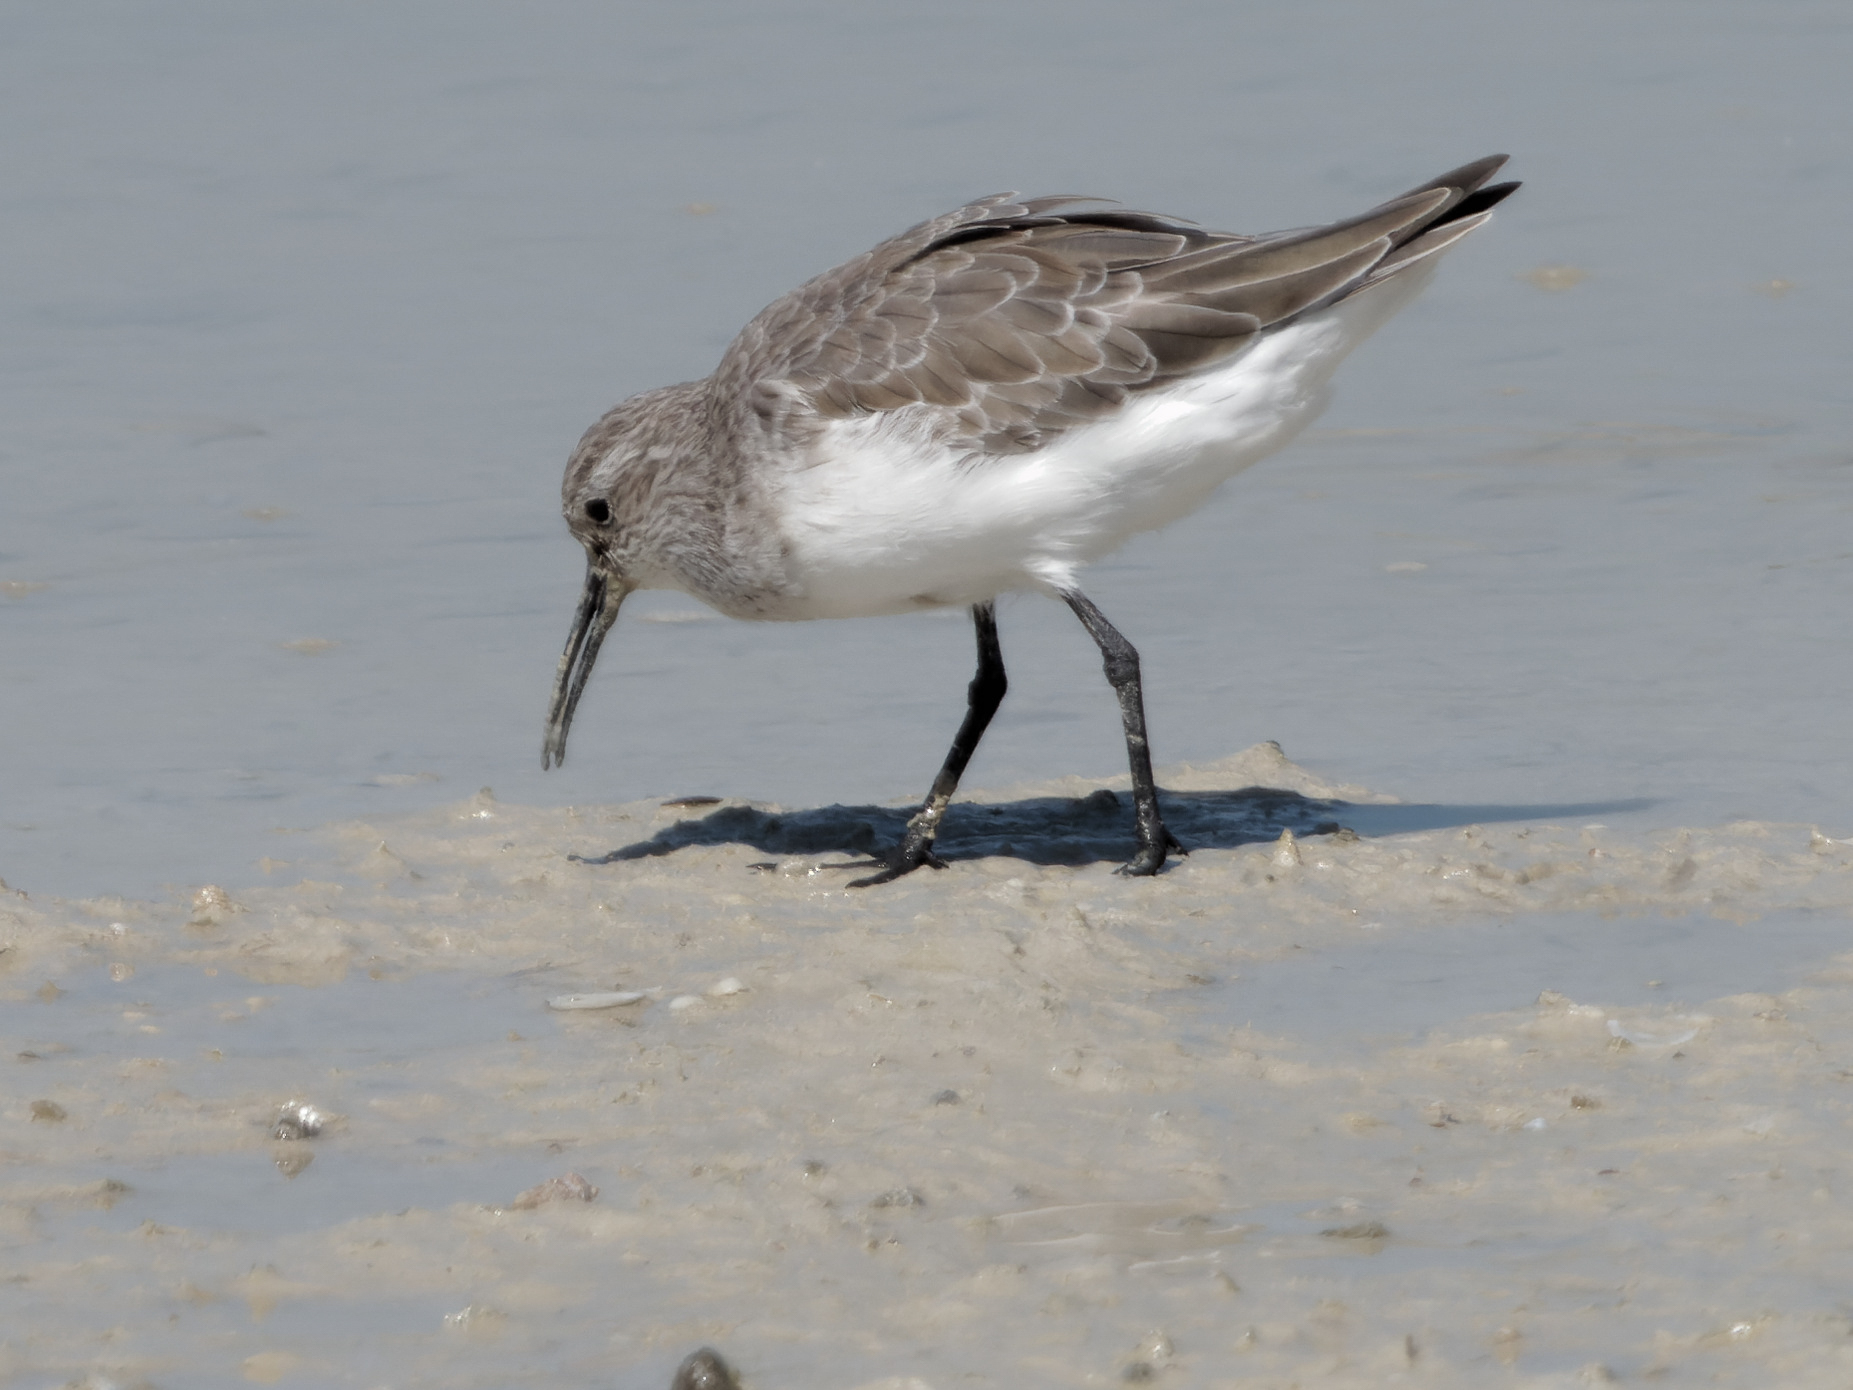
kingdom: Animalia
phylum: Chordata
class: Aves
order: Charadriiformes
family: Scolopacidae
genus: Calidris
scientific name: Calidris ferruginea
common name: Curlew sandpiper
